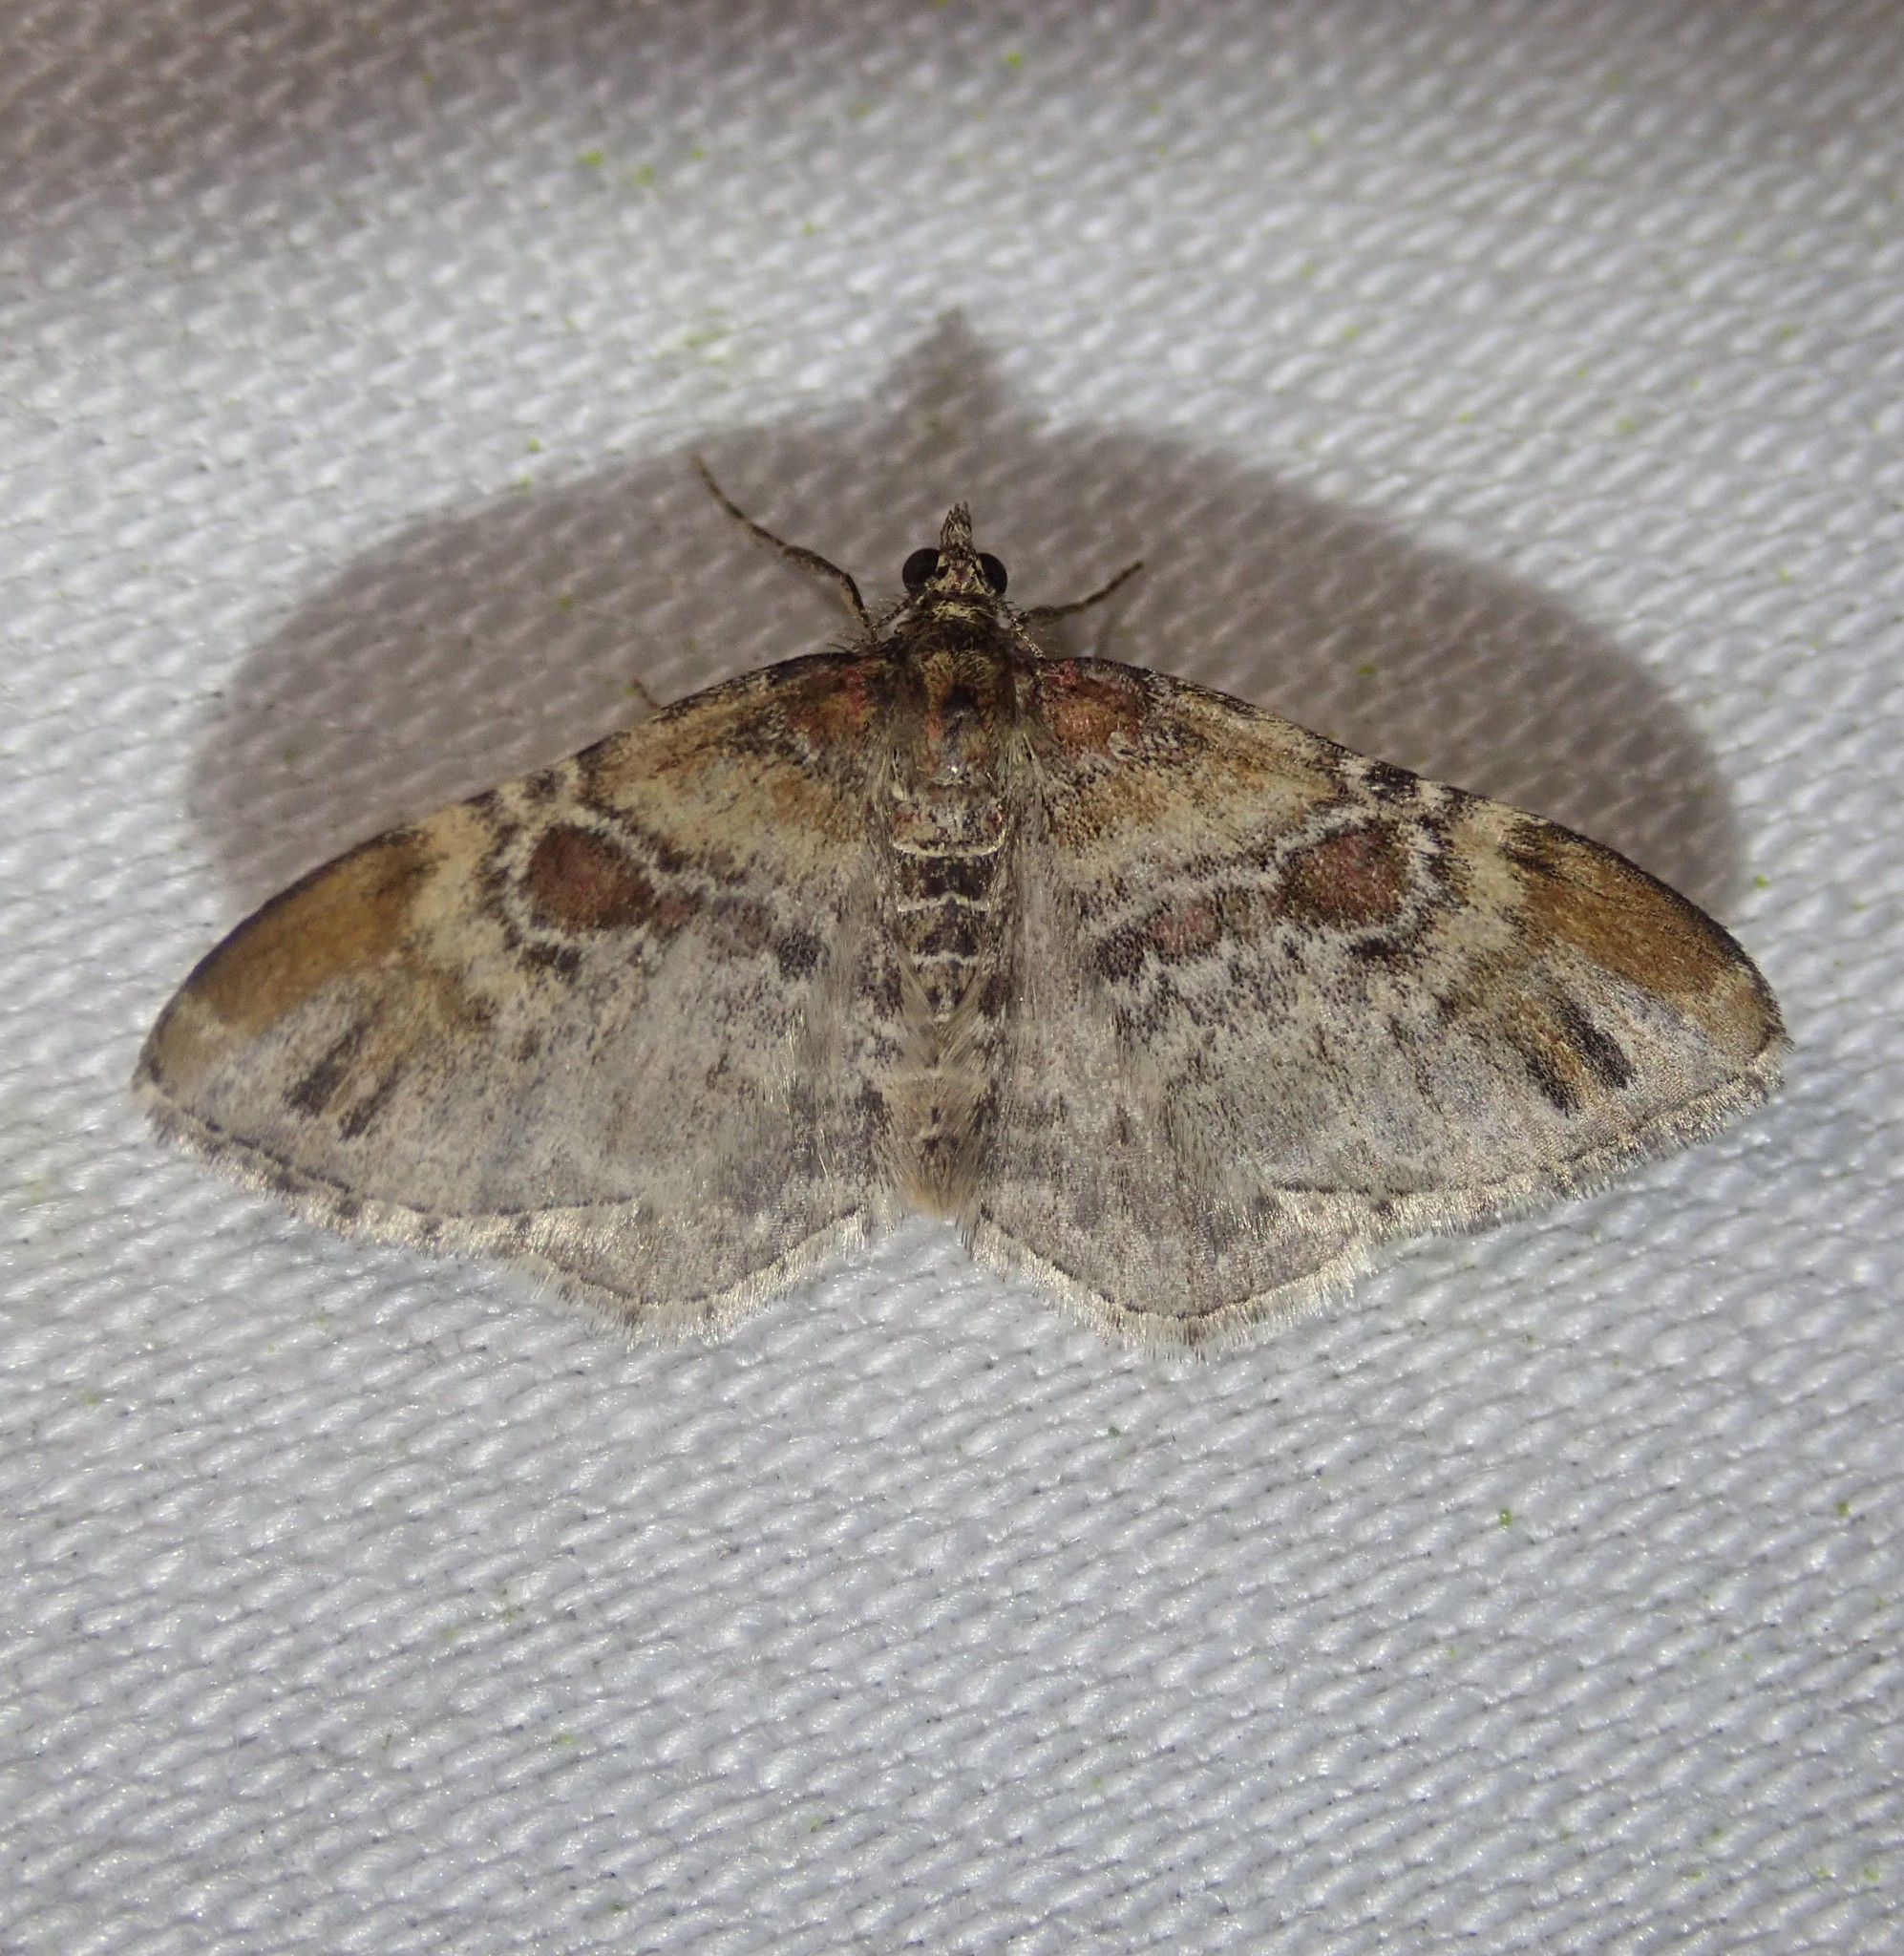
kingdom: Animalia
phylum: Arthropoda
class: Insecta
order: Lepidoptera
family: Geometridae
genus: Xanthorhoe
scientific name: Xanthorhoe spadicearia
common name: Red twin-spot carpet
